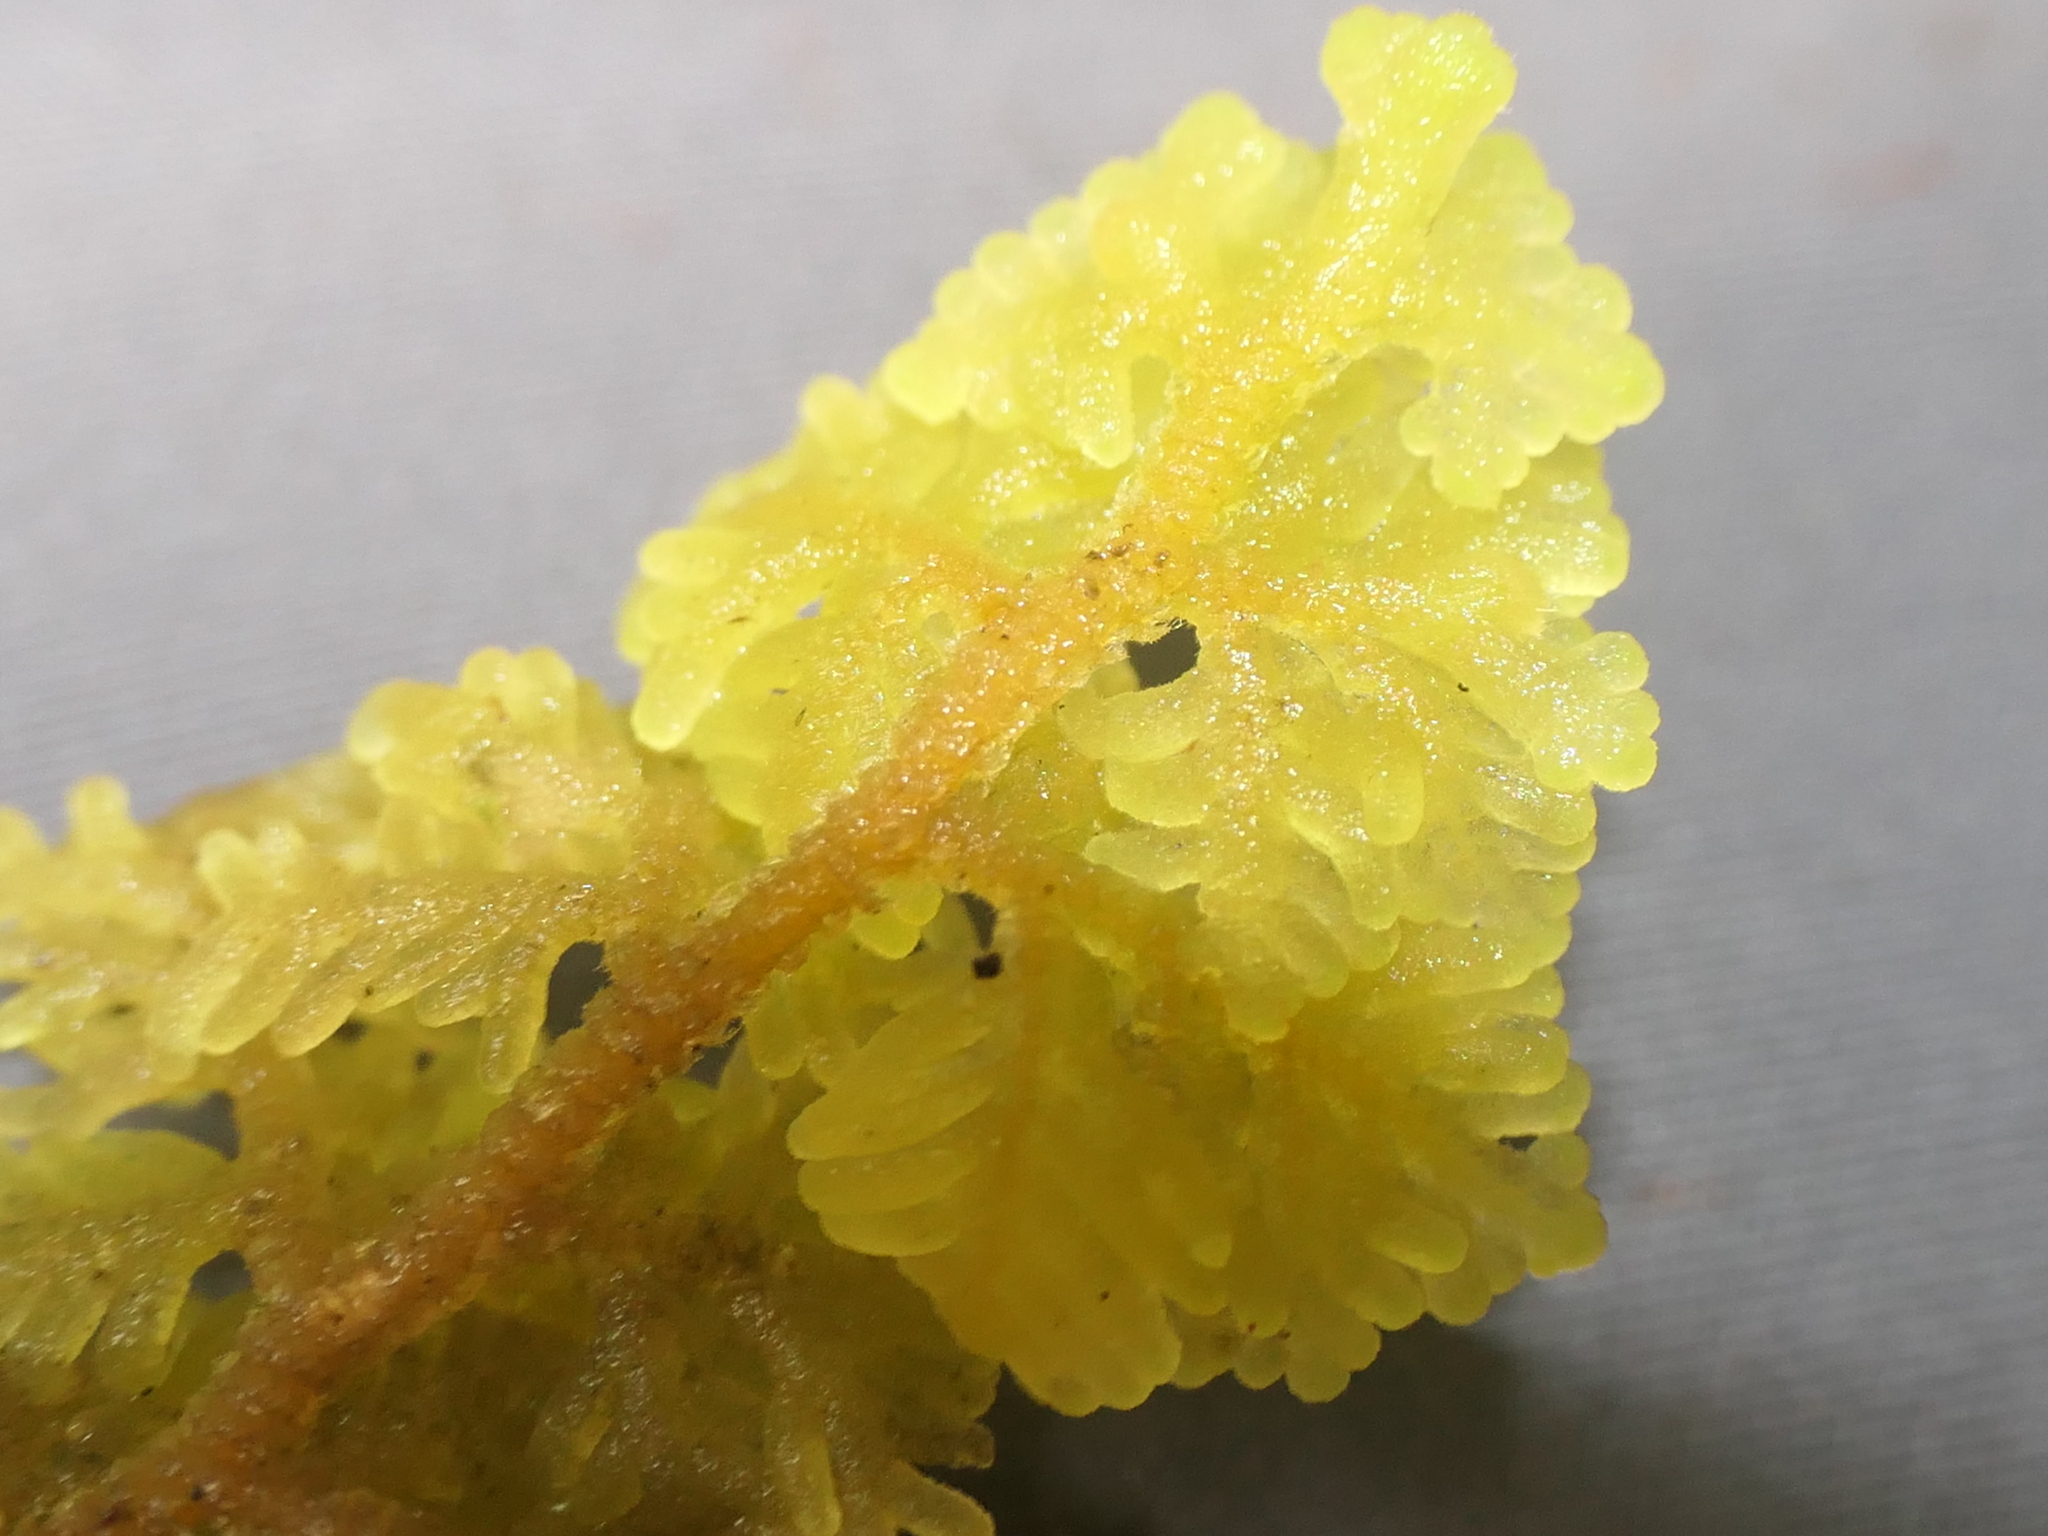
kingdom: Plantae
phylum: Marchantiophyta
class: Jungermanniopsida
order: Jungermanniales
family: Trichocoleaceae
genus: Trichocolea
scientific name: Trichocolea mollissima
